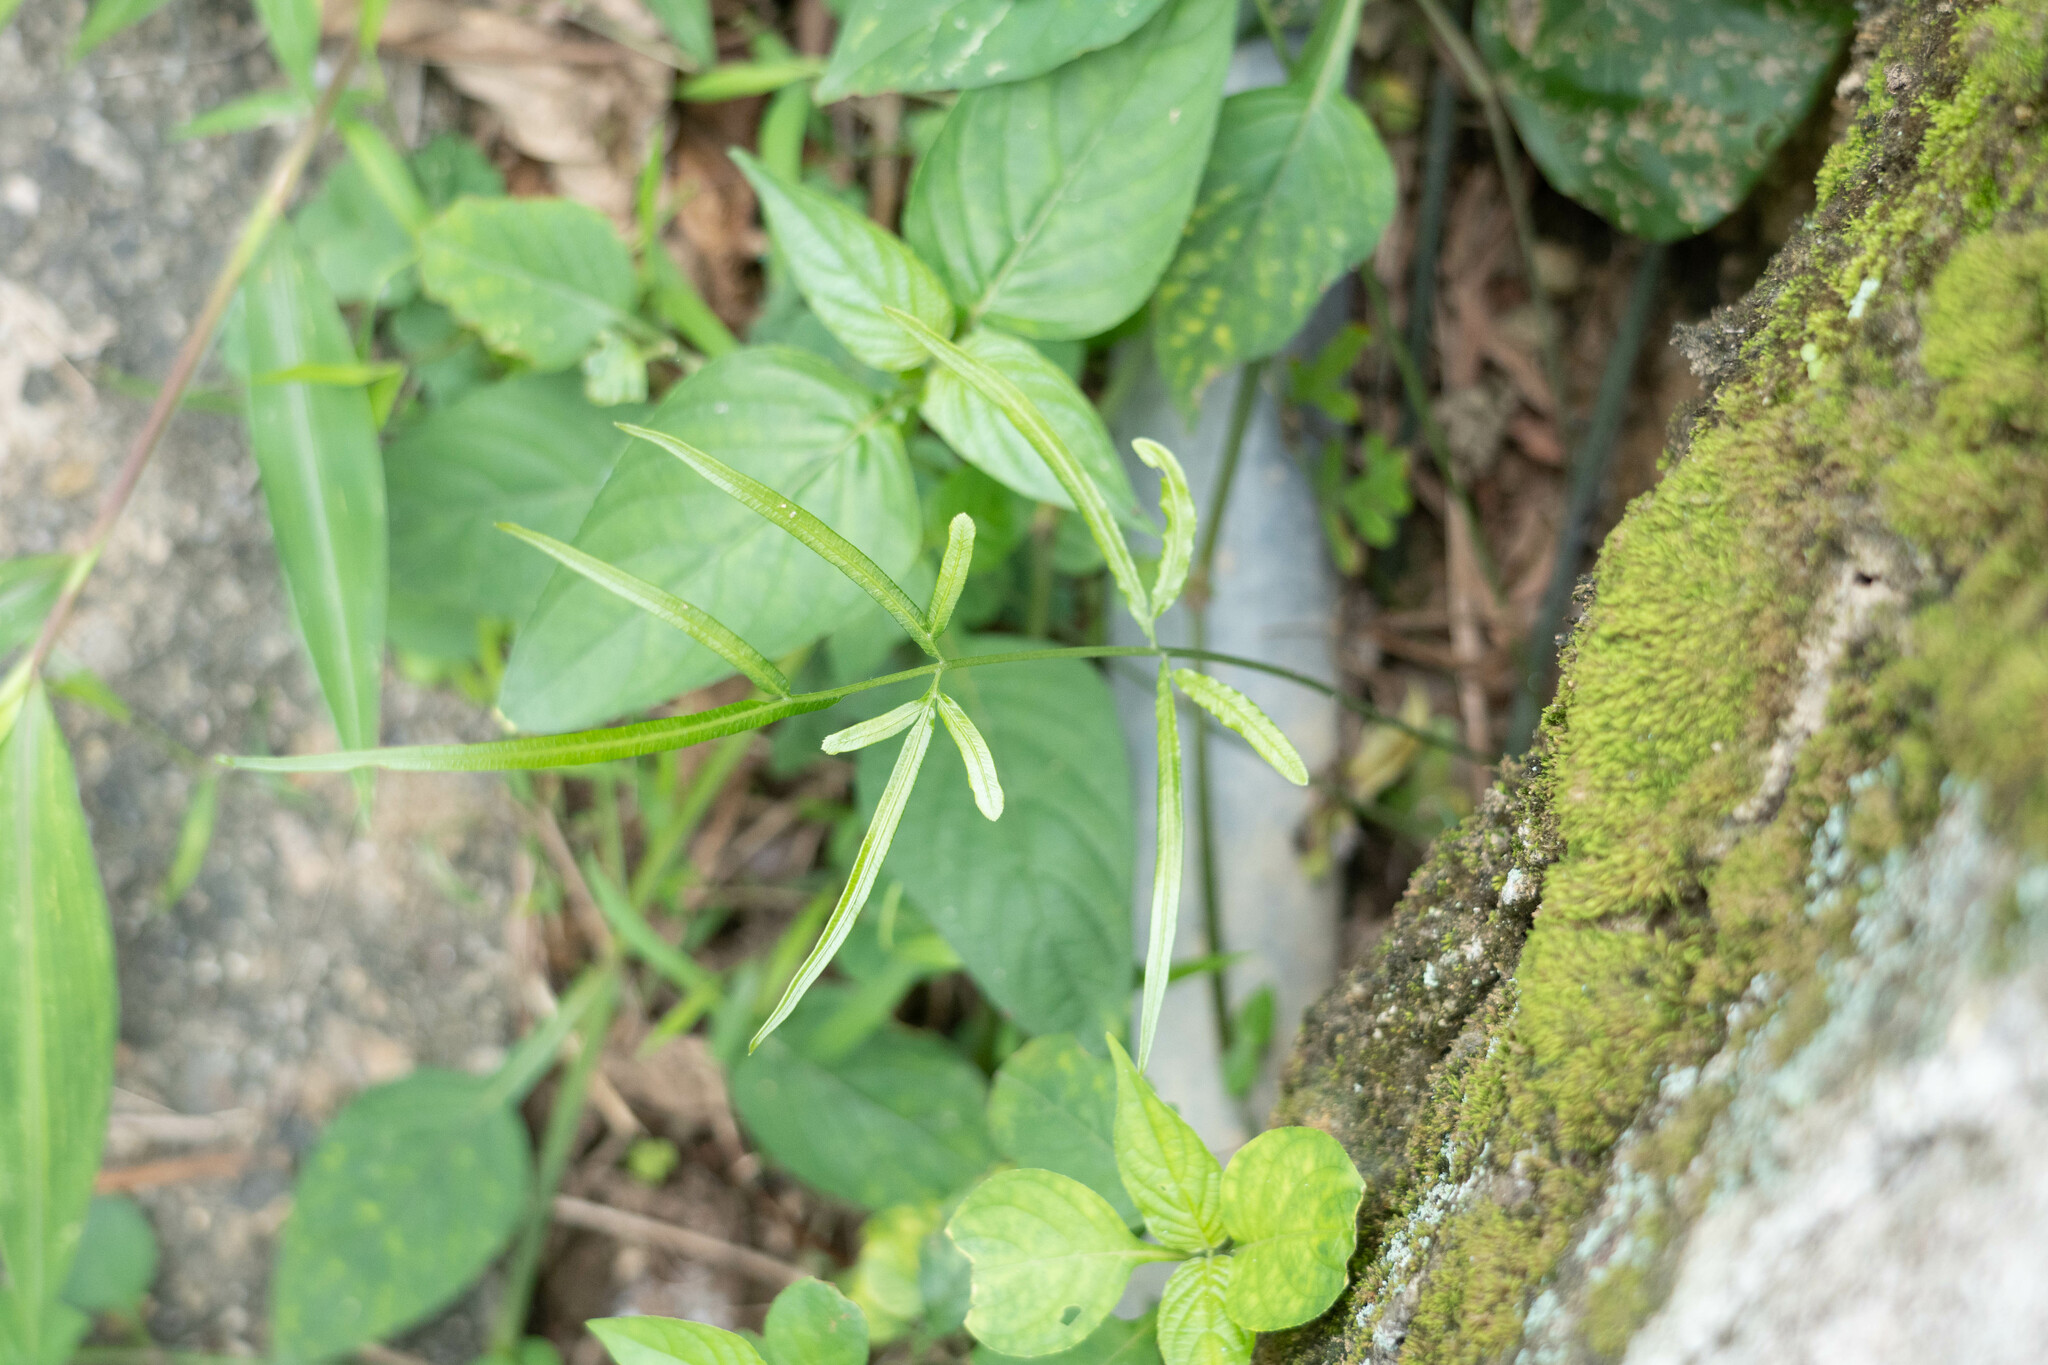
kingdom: Plantae
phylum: Tracheophyta
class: Polypodiopsida
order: Polypodiales
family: Pteridaceae
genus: Pteris
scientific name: Pteris ensiformis
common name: Sword brake
